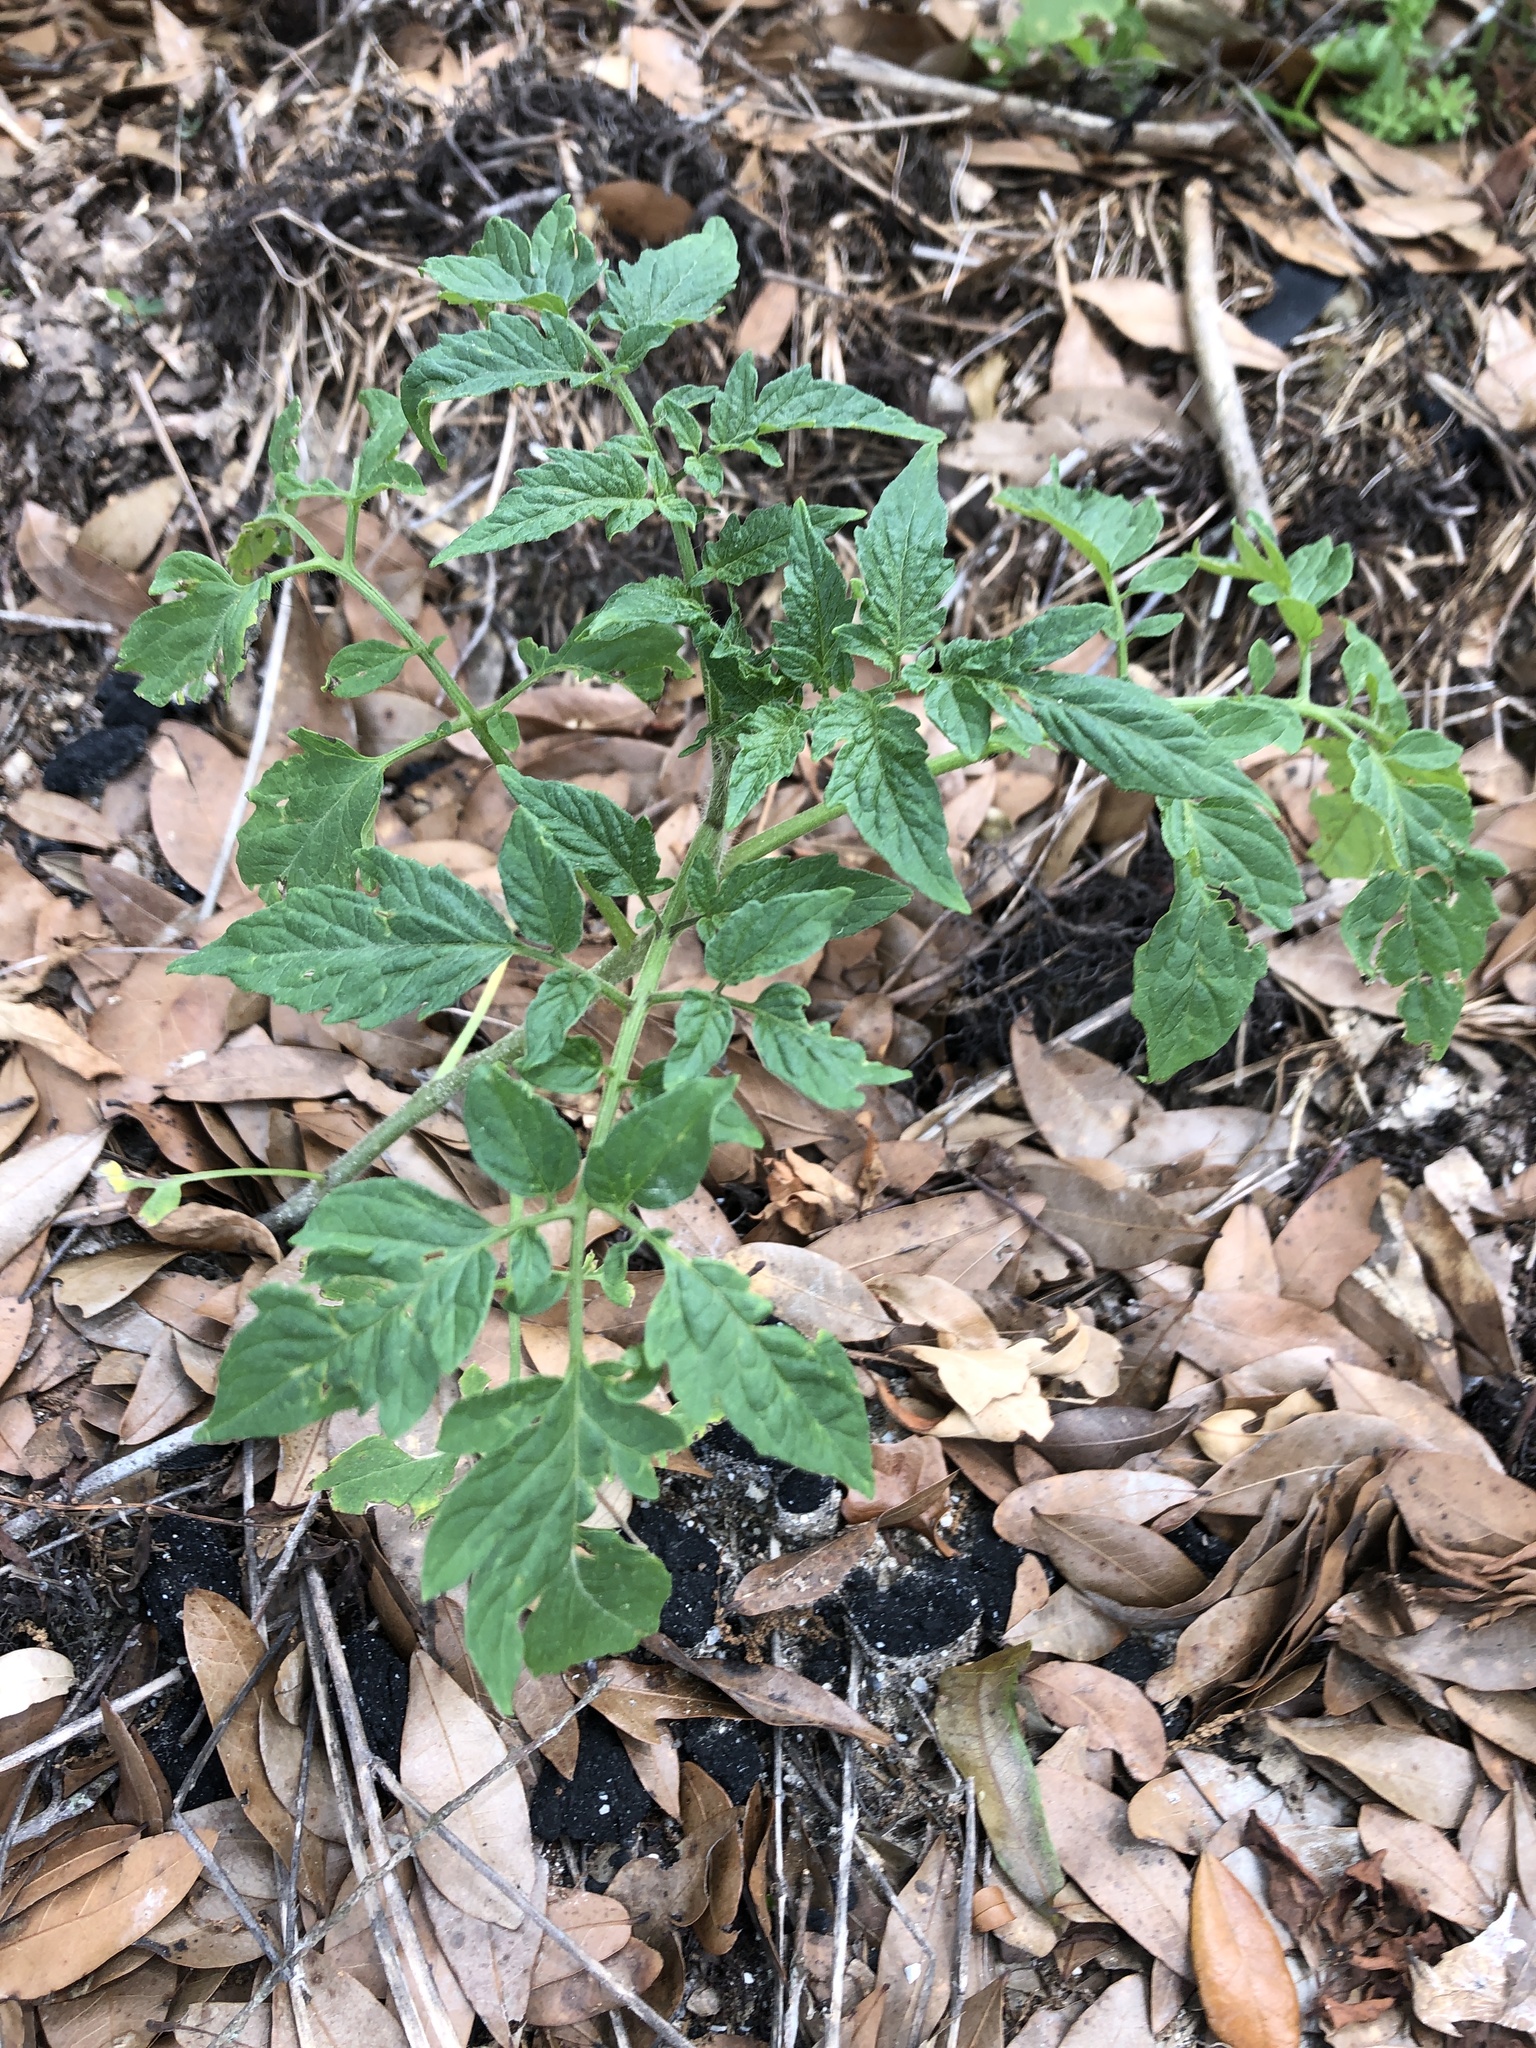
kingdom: Plantae
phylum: Tracheophyta
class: Magnoliopsida
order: Solanales
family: Solanaceae
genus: Solanum
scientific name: Solanum lycopersicum
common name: Garden tomato
